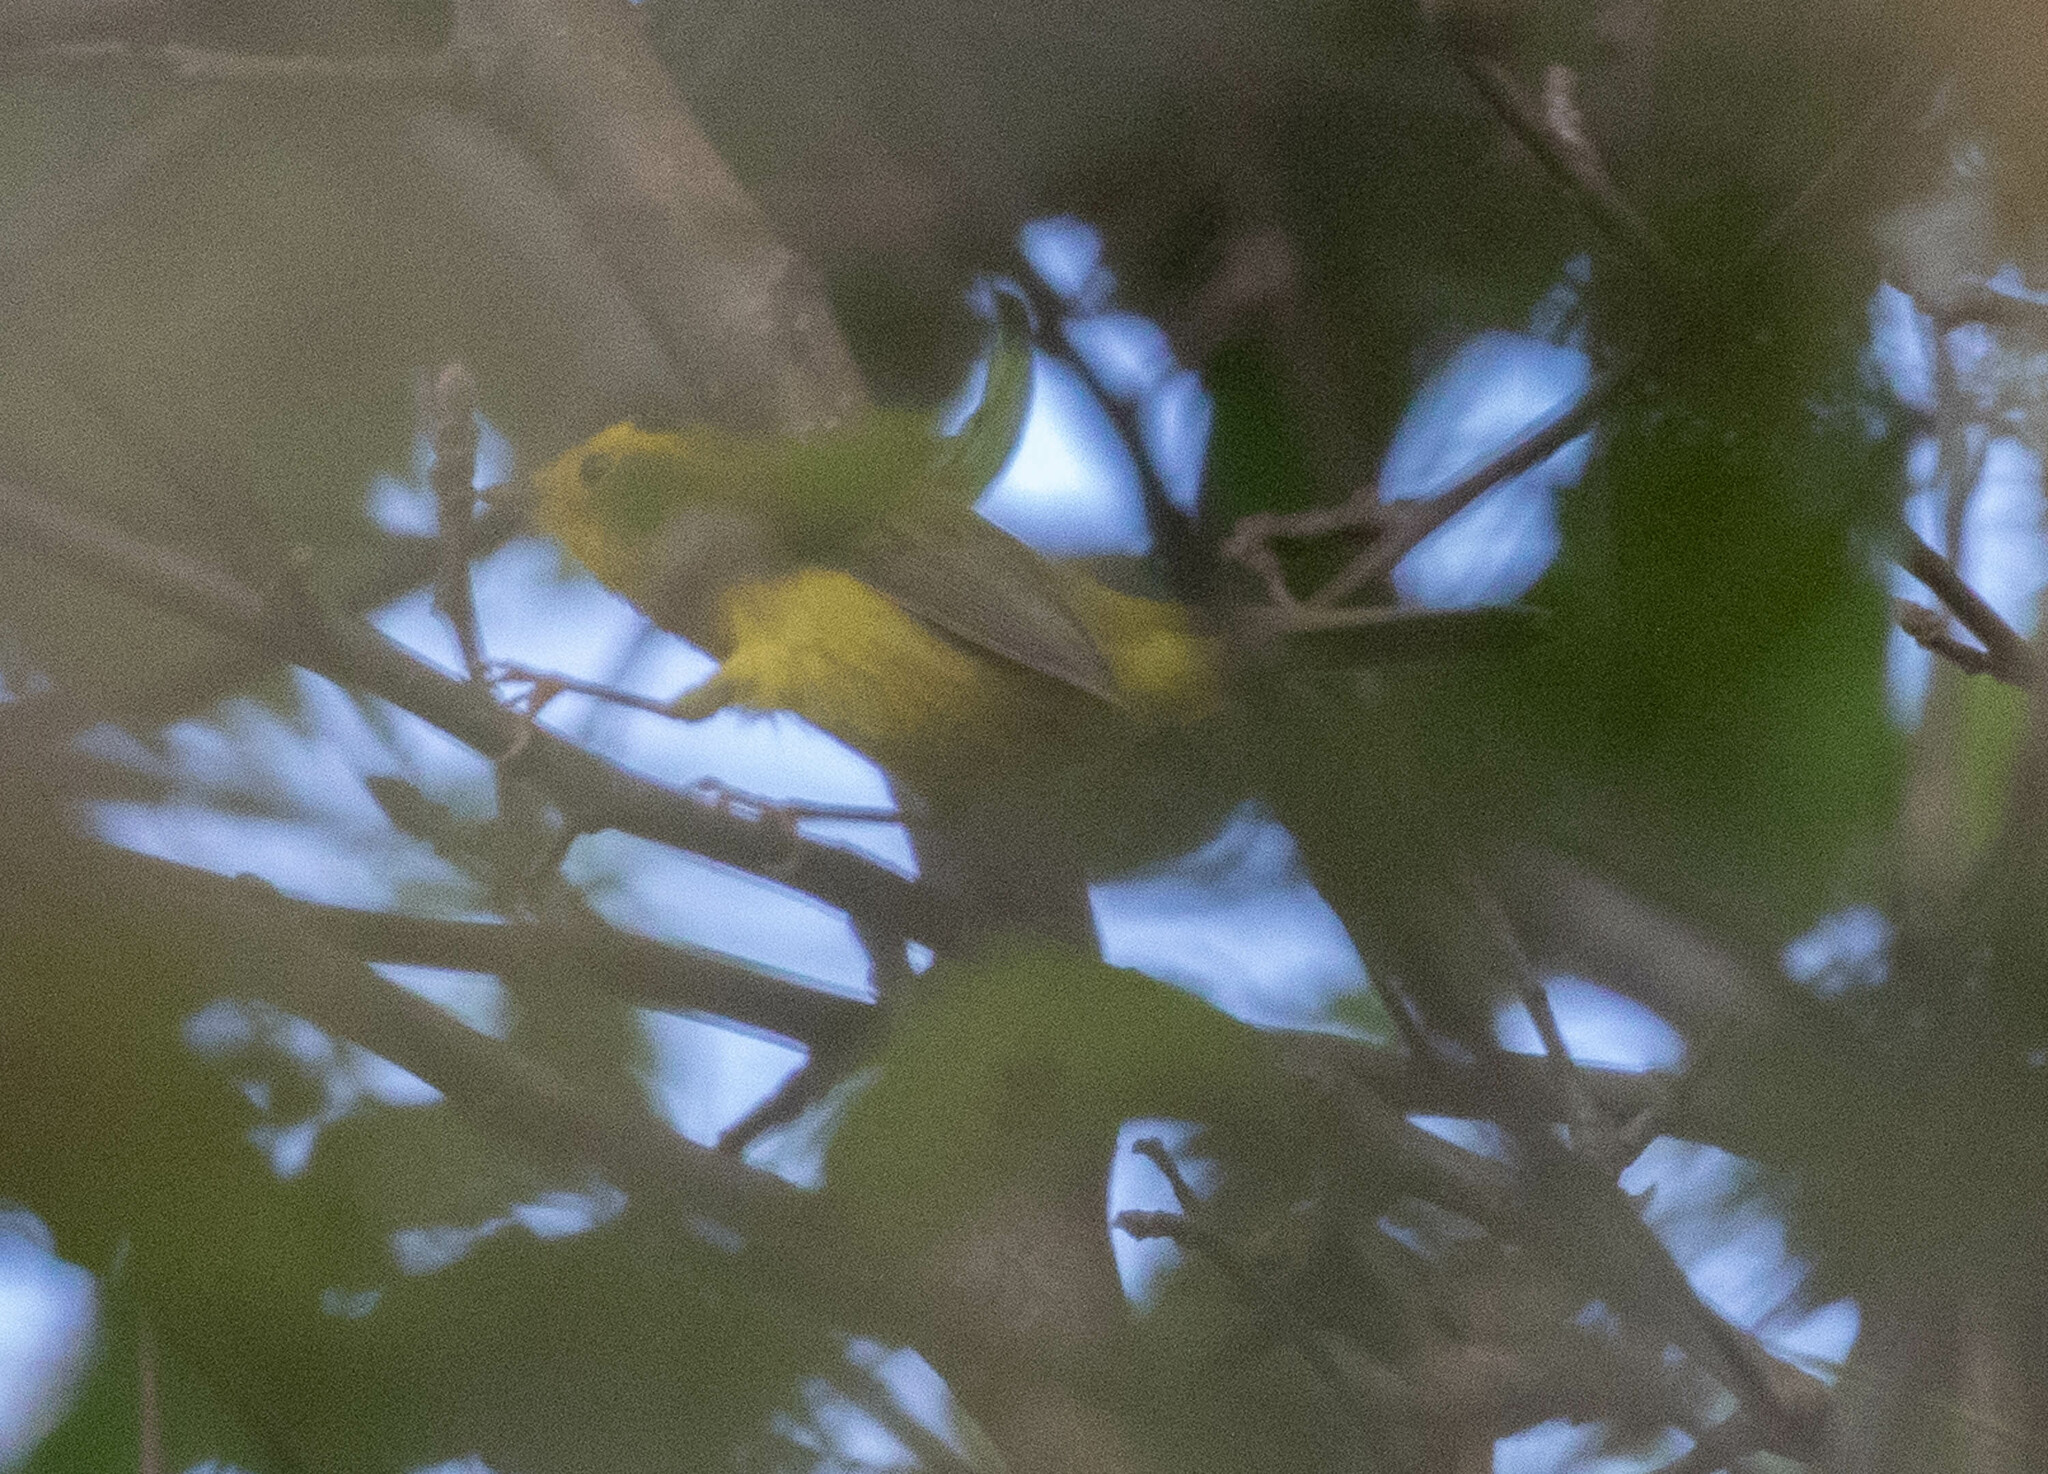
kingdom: Animalia
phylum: Chordata
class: Aves
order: Passeriformes
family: Parulidae
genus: Cardellina
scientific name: Cardellina pusilla
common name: Wilson's warbler
